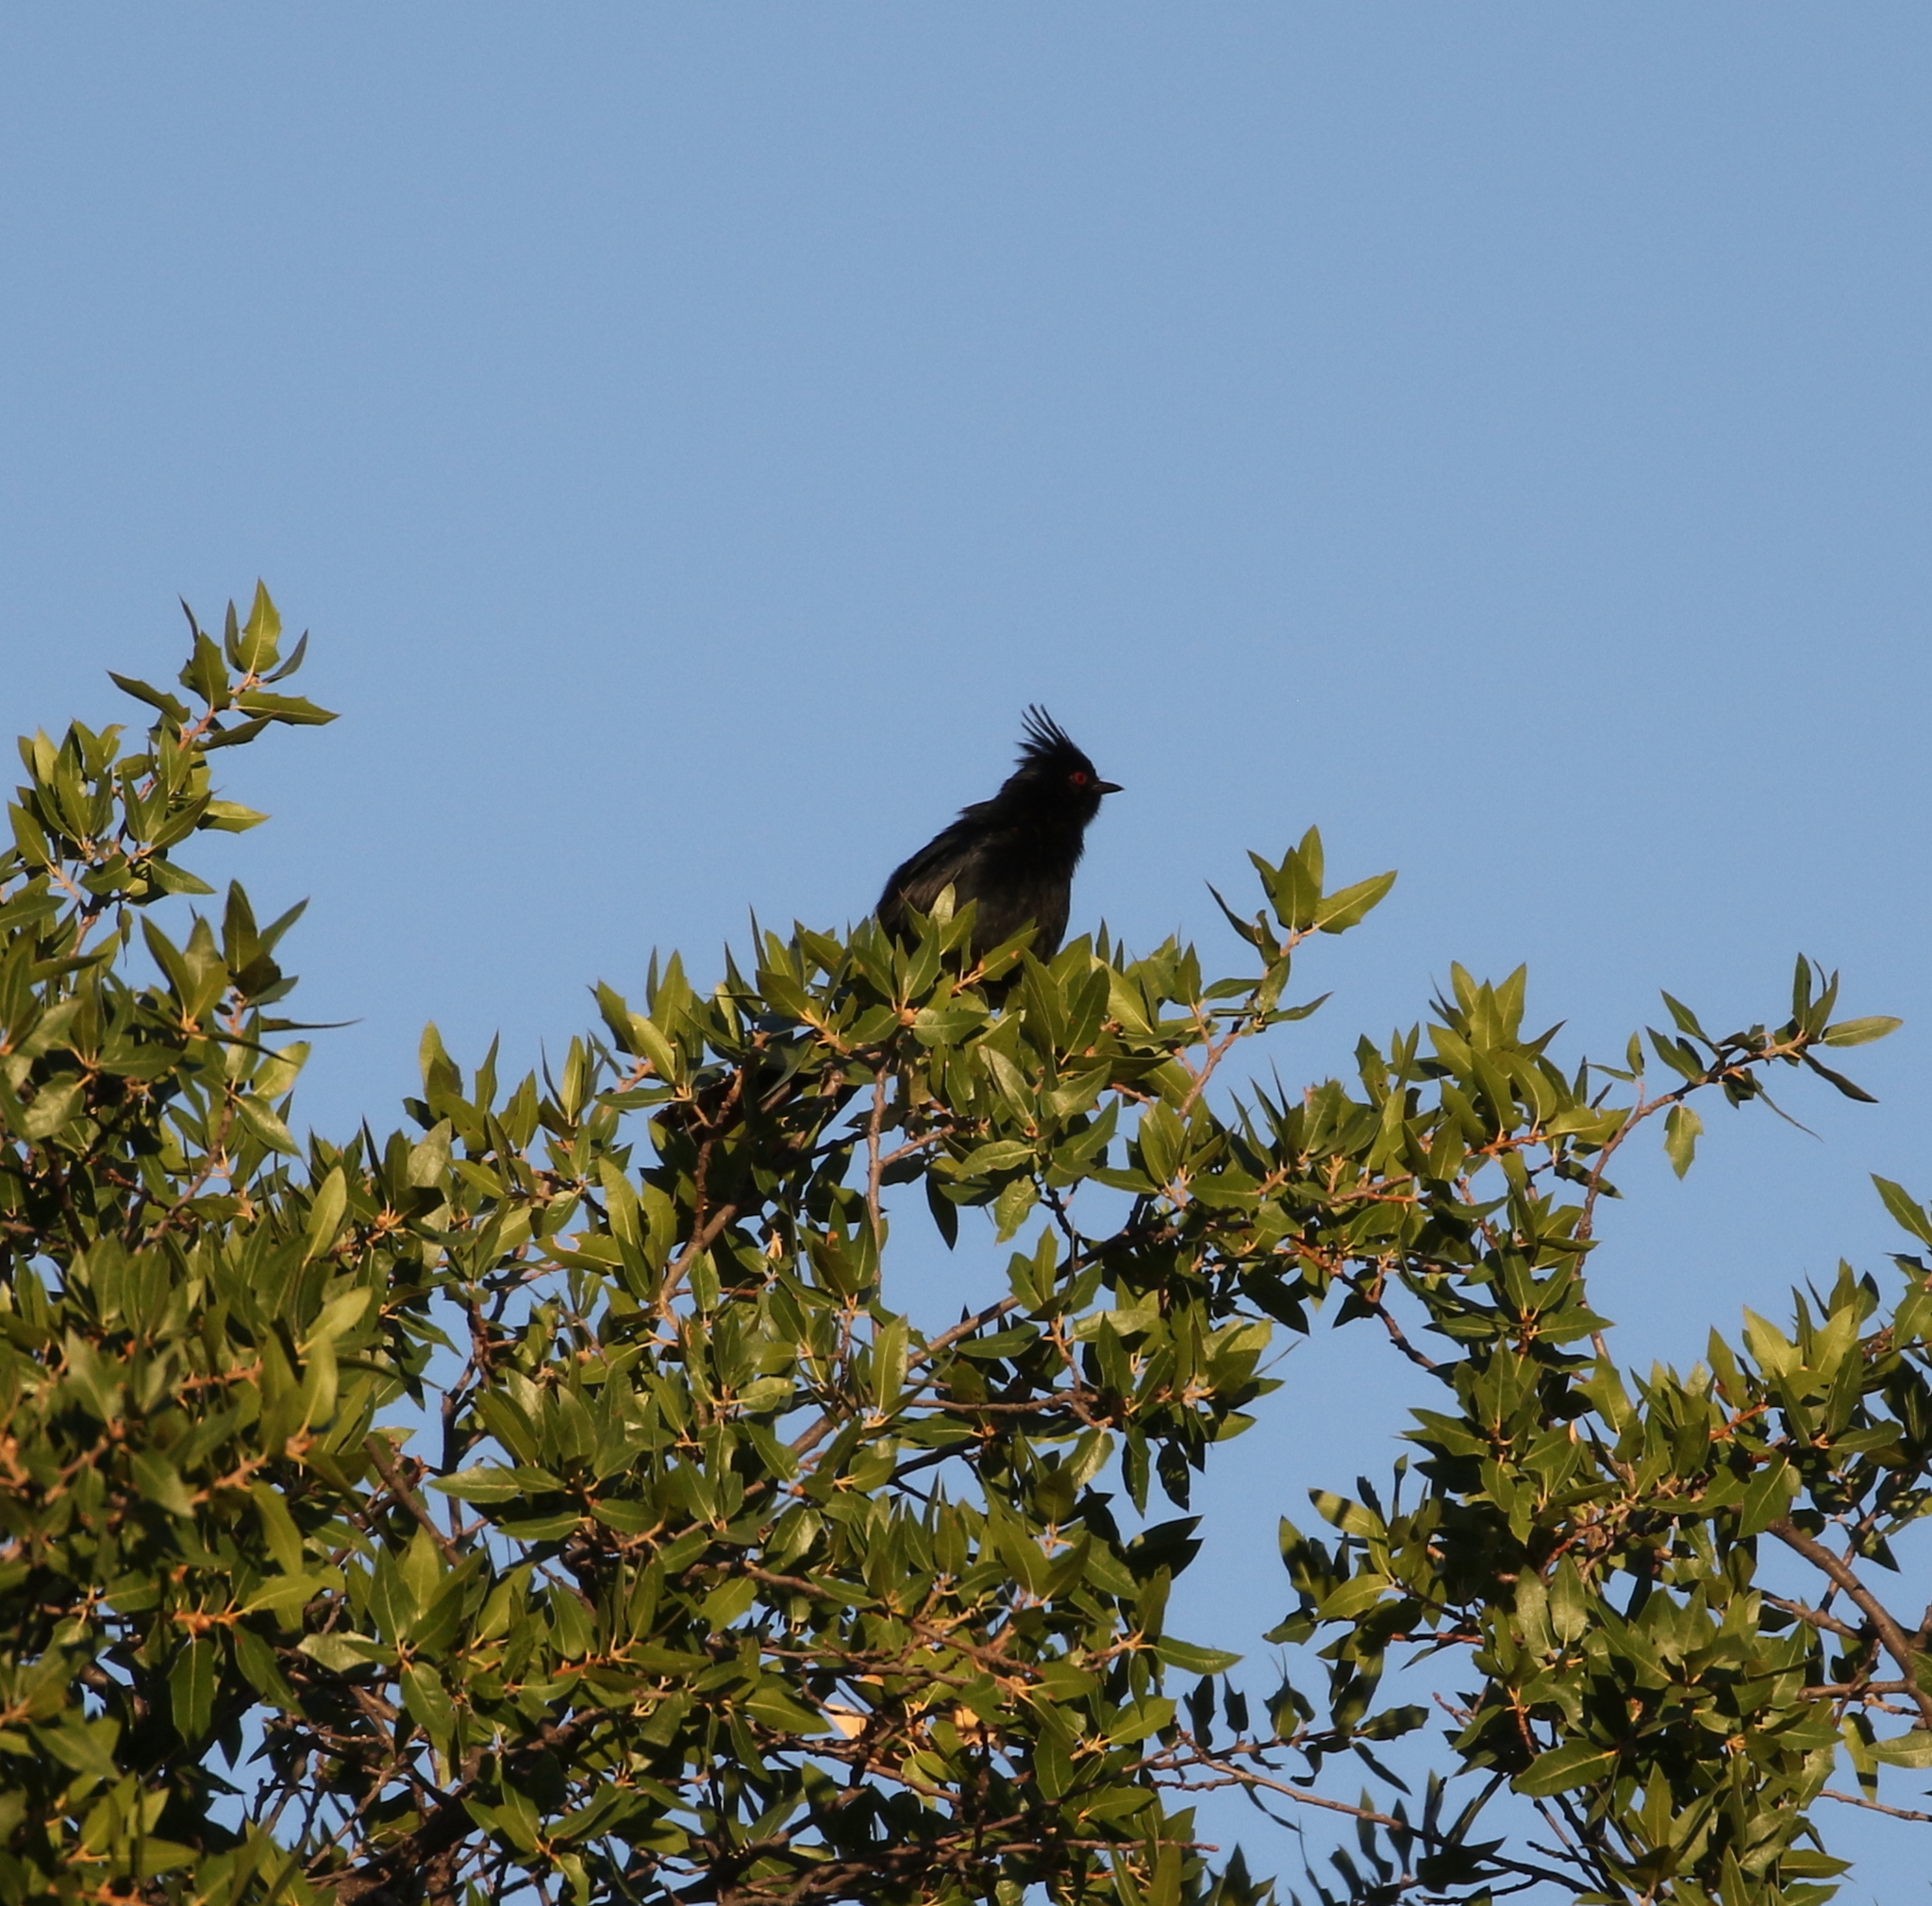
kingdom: Animalia
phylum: Chordata
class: Aves
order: Passeriformes
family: Ptilogonatidae
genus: Phainopepla
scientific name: Phainopepla nitens
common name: Phainopepla
